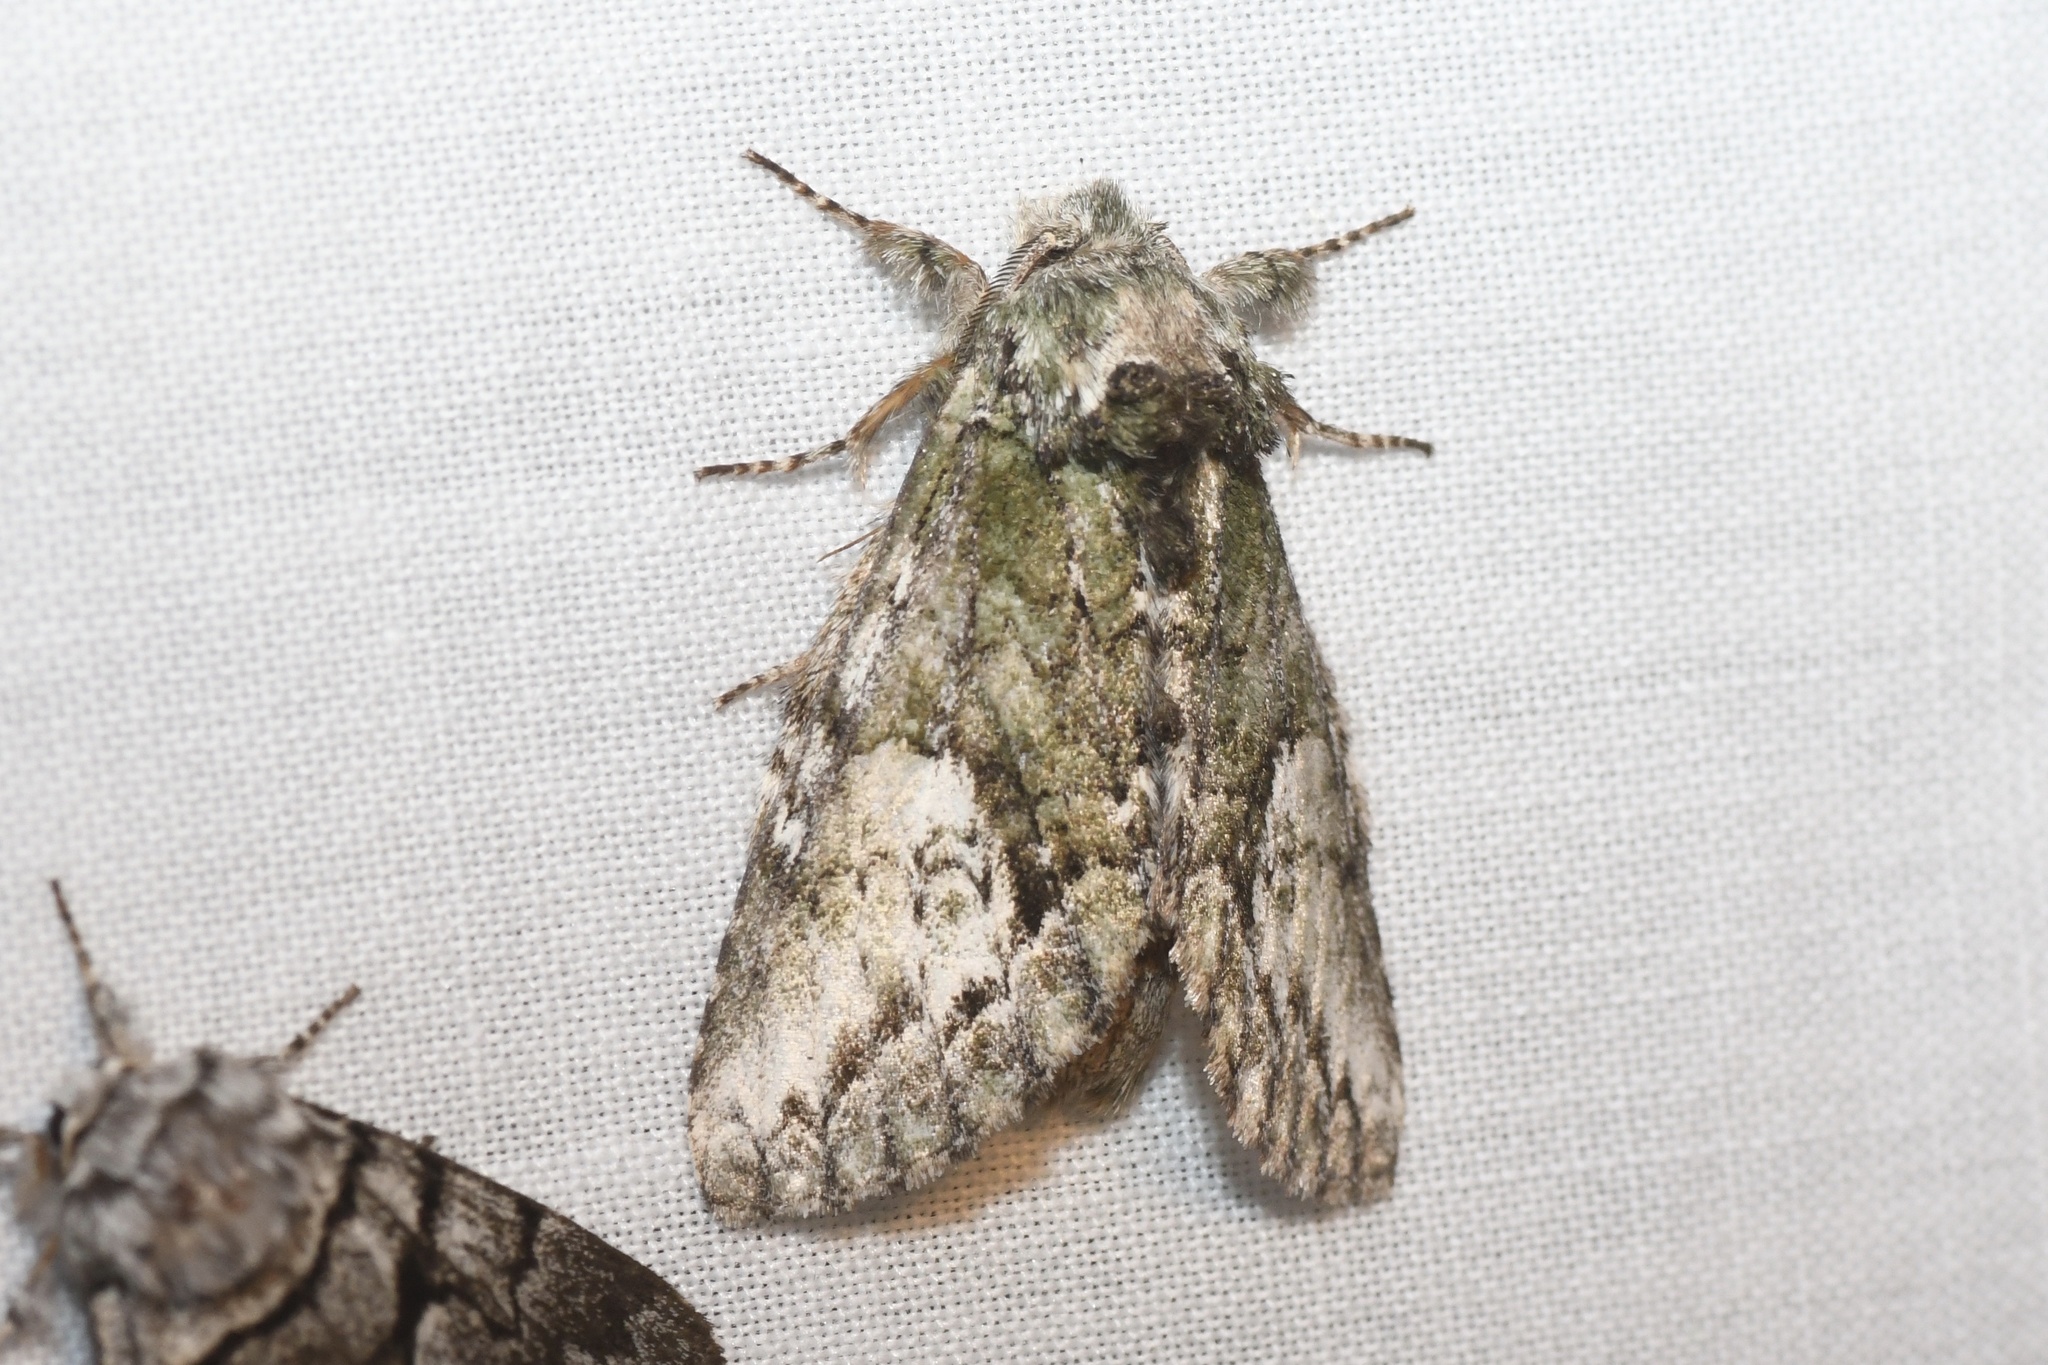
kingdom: Animalia
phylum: Arthropoda
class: Insecta
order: Lepidoptera
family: Notodontidae
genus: Heterocampa
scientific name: Heterocampa
